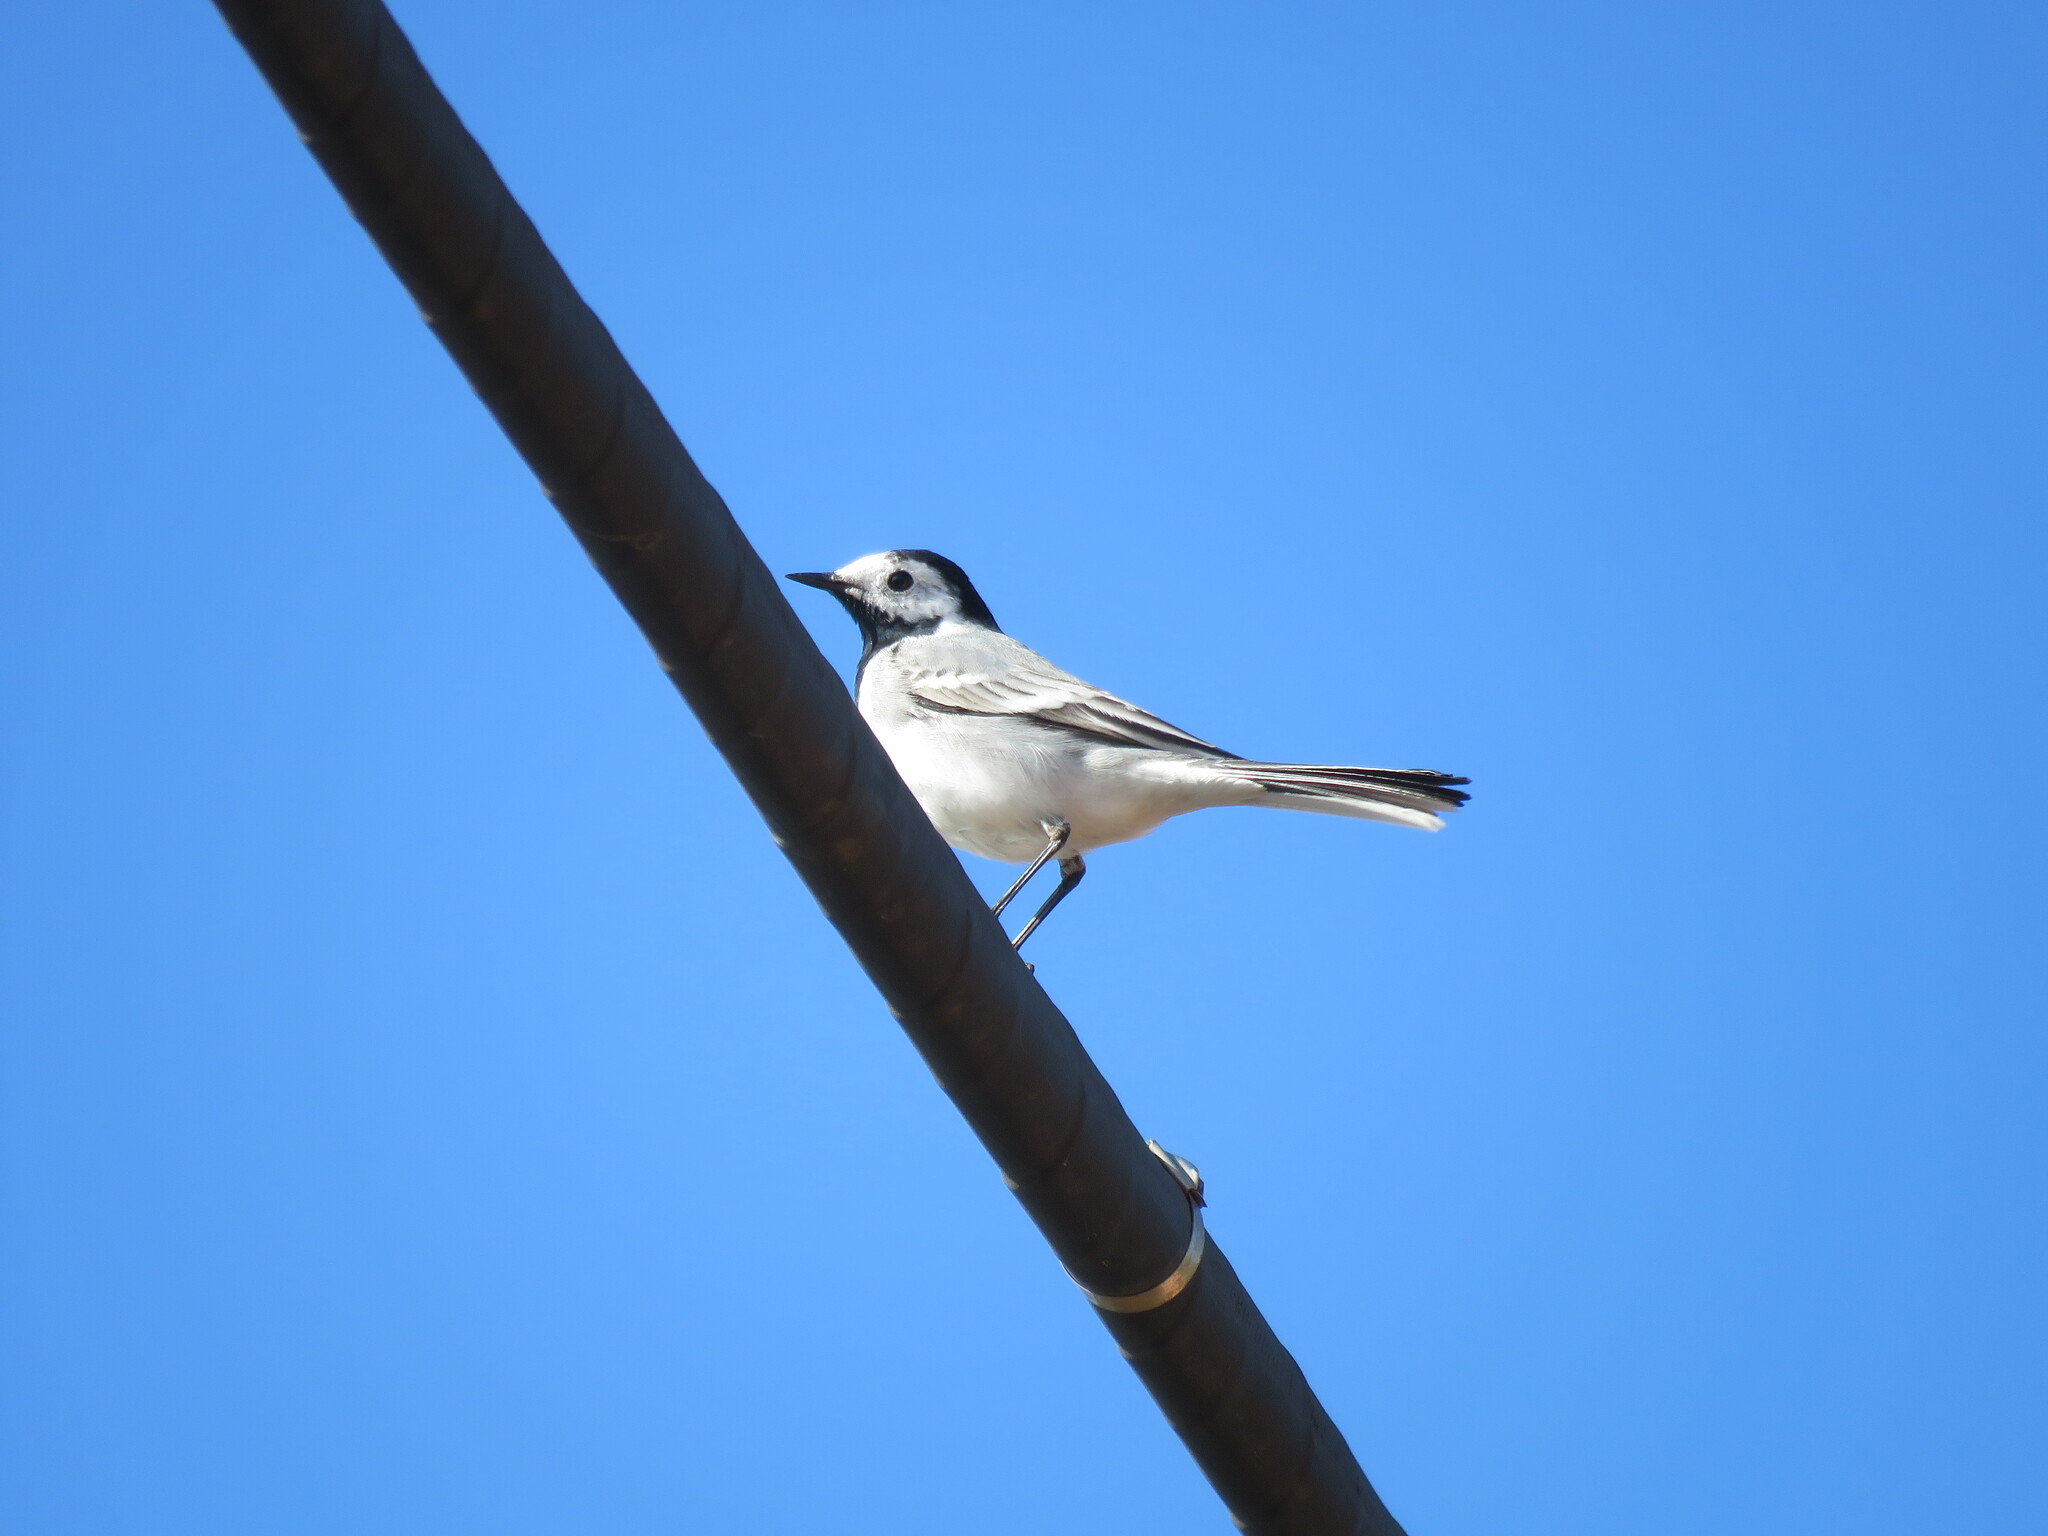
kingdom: Animalia
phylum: Chordata
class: Aves
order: Passeriformes
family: Motacillidae
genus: Motacilla
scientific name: Motacilla alba
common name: White wagtail
